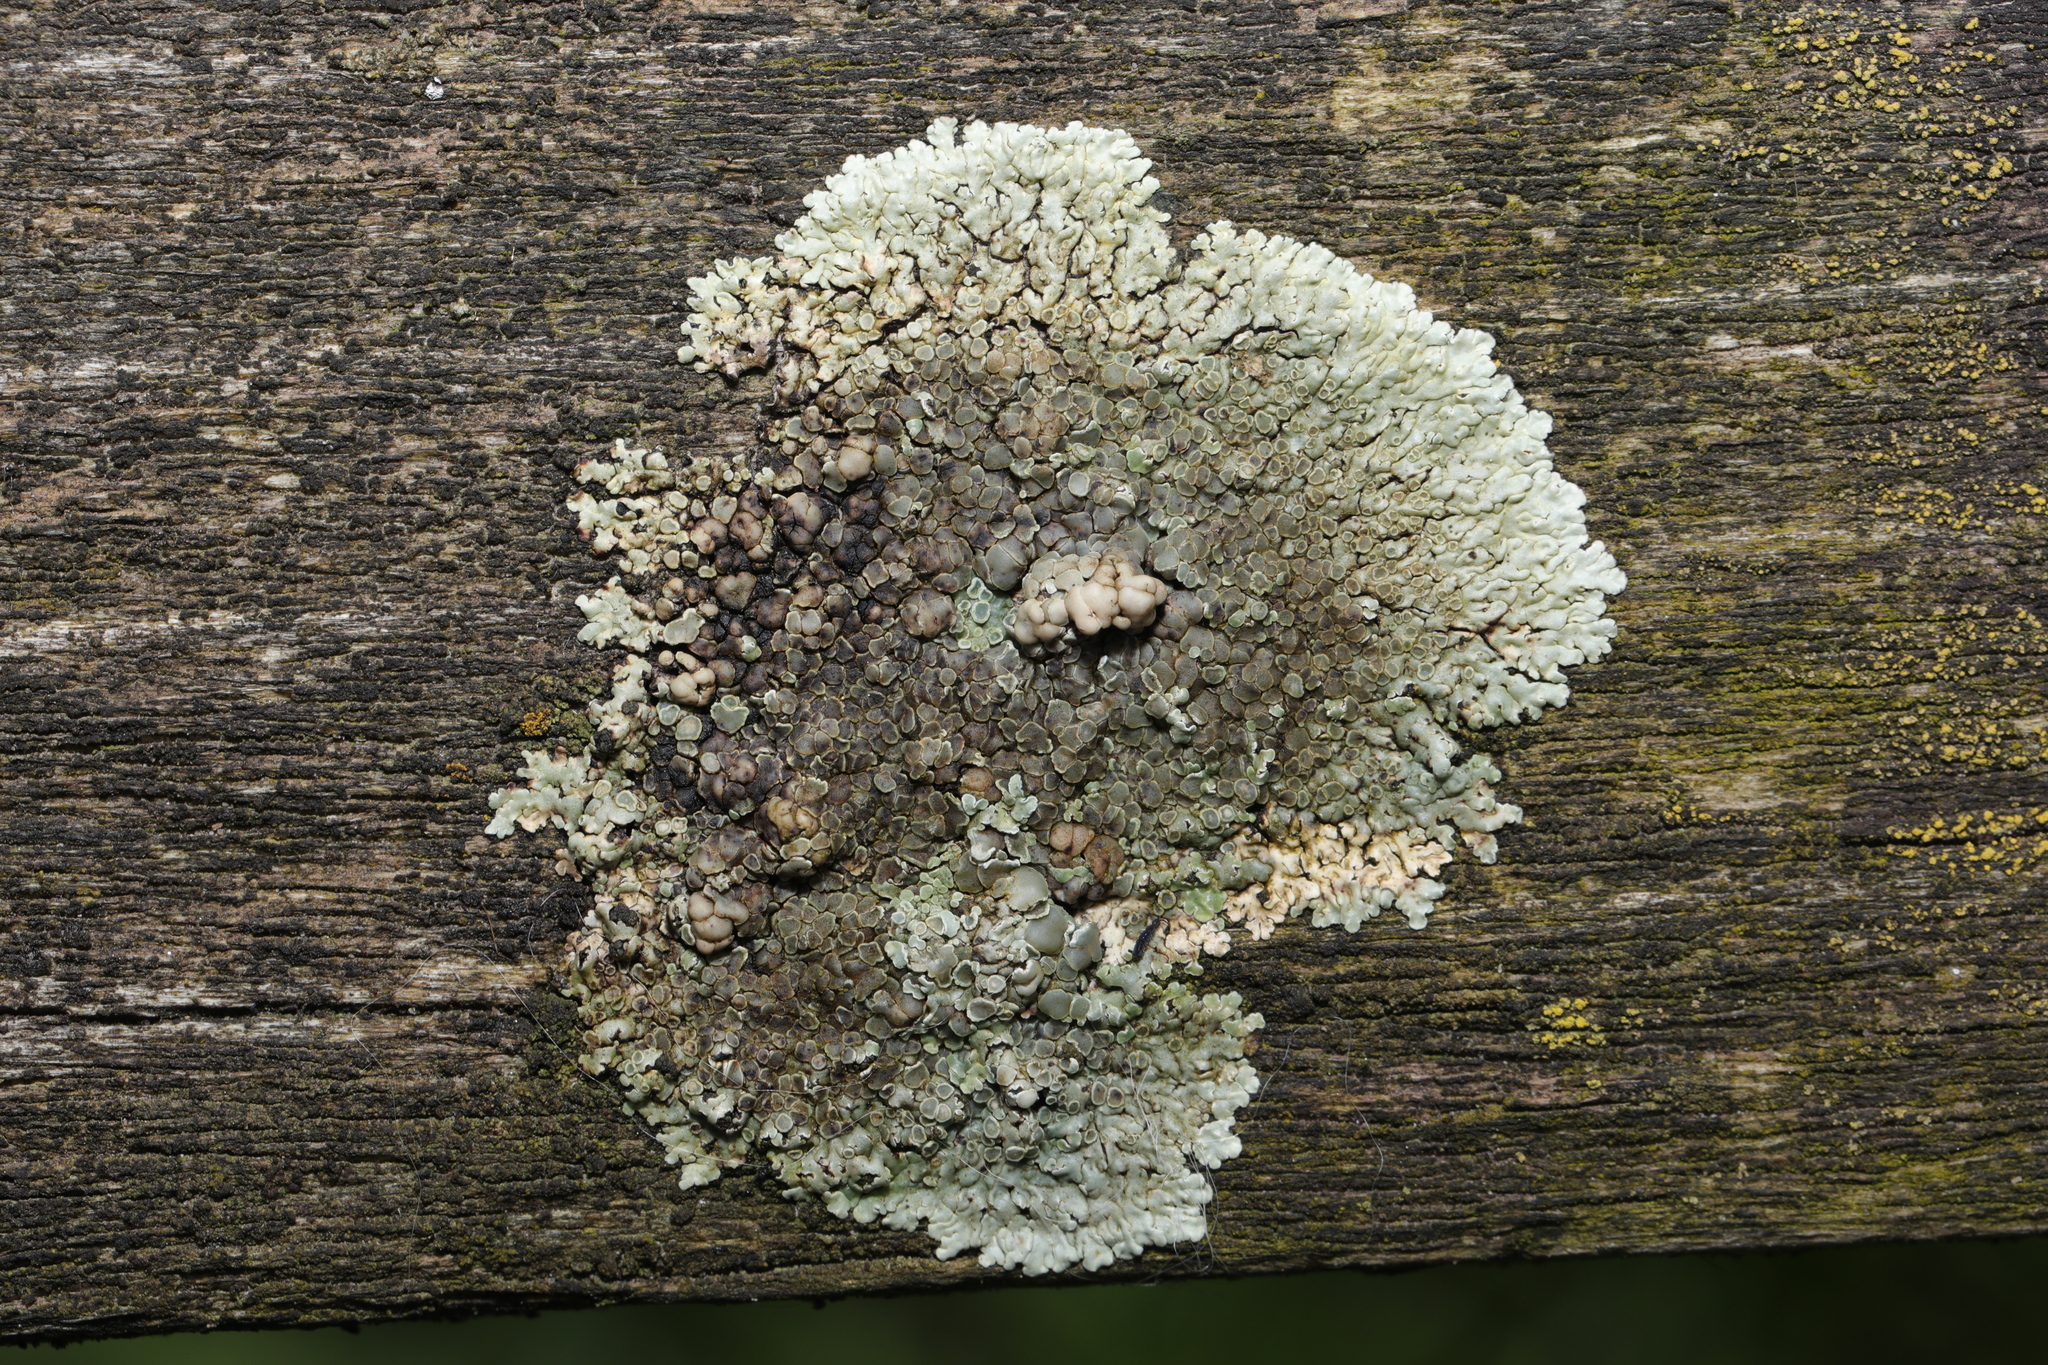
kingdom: Fungi
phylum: Ascomycota
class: Lecanoromycetes
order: Lecanorales
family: Lecanoraceae
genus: Protoparmeliopsis
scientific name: Protoparmeliopsis muralis
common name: Stonewall rim lichen
